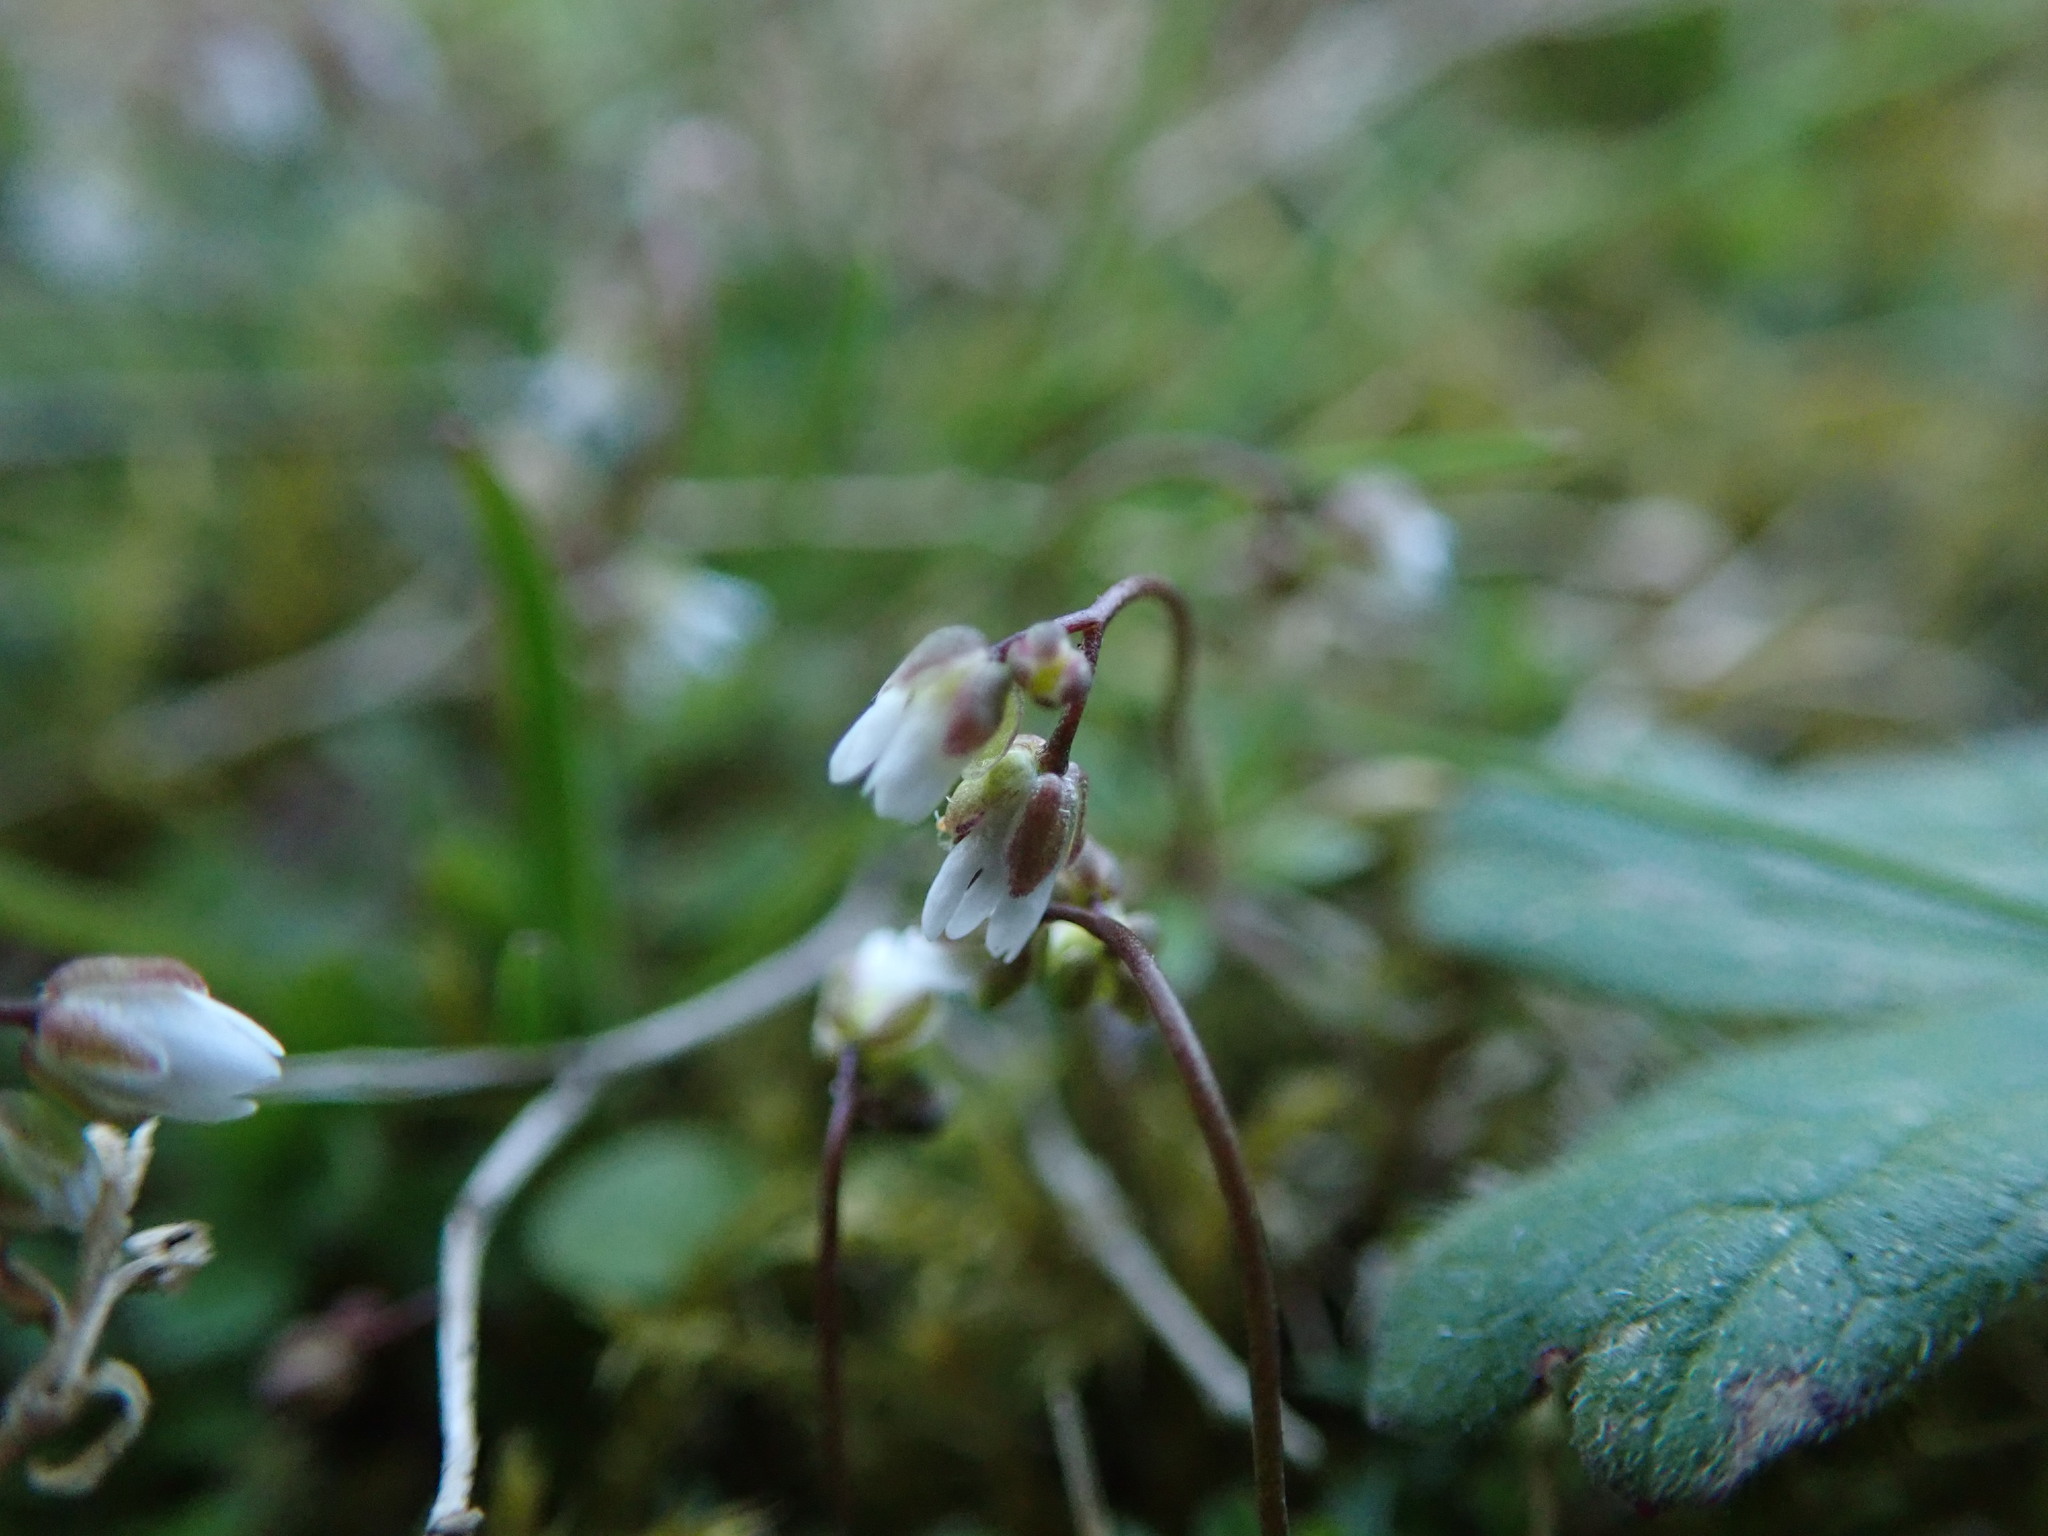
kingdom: Plantae
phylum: Tracheophyta
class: Magnoliopsida
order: Brassicales
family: Brassicaceae
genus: Draba
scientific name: Draba verna
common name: Spring draba
